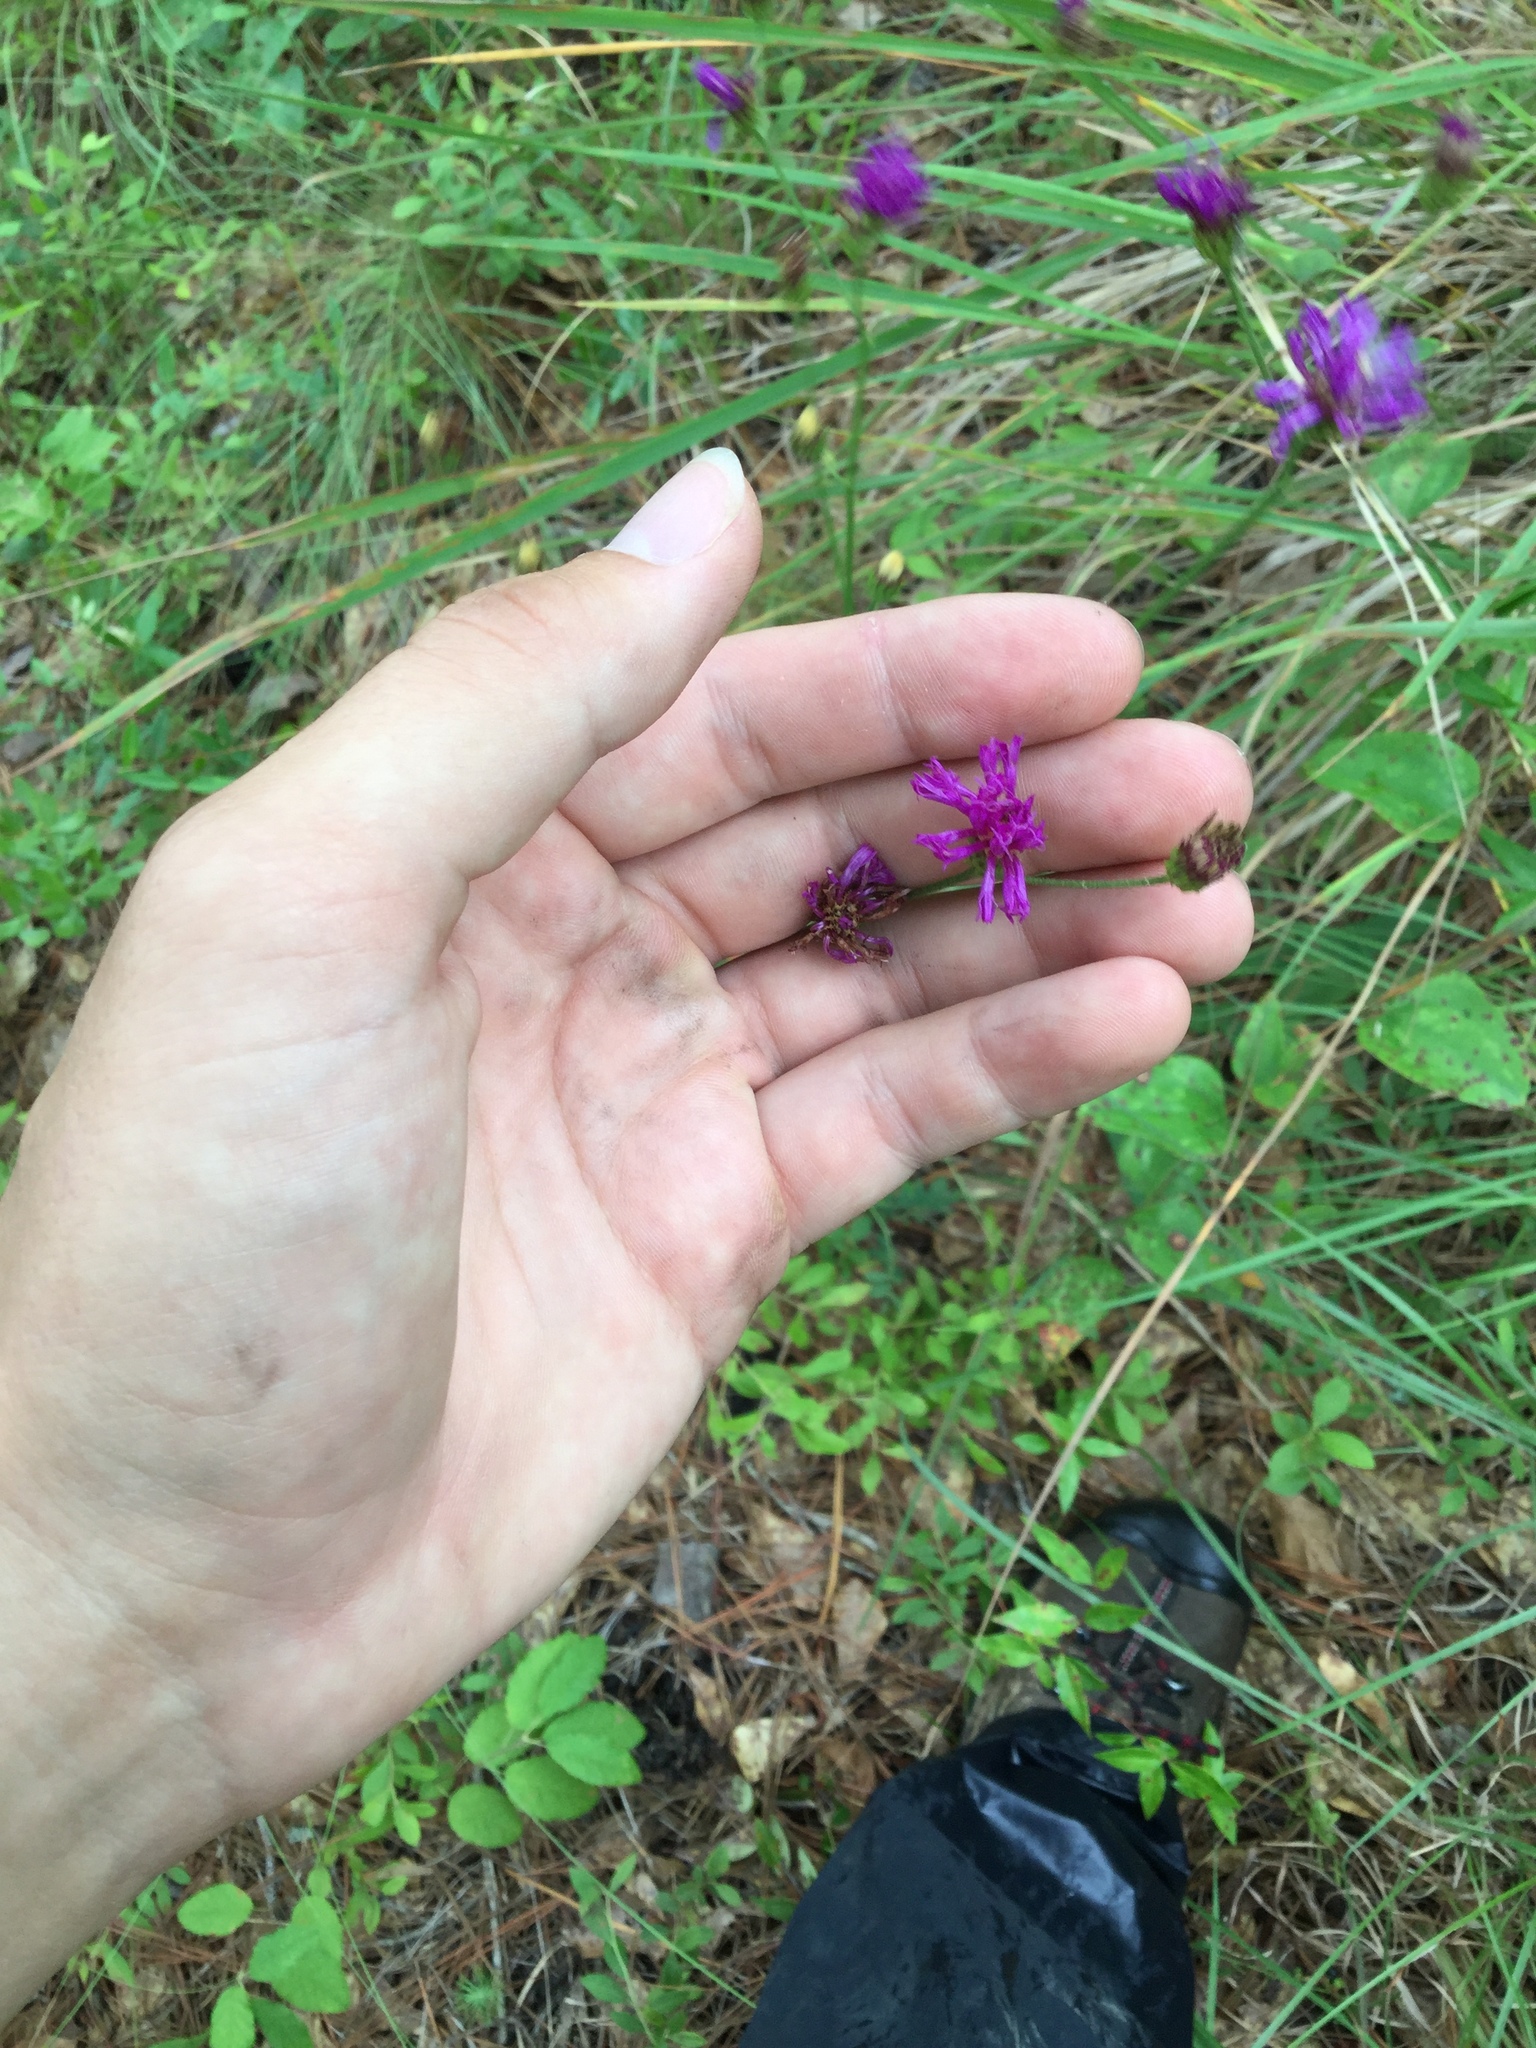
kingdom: Plantae
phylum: Tracheophyta
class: Magnoliopsida
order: Asterales
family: Asteraceae
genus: Vernonia
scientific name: Vernonia angustifolia
